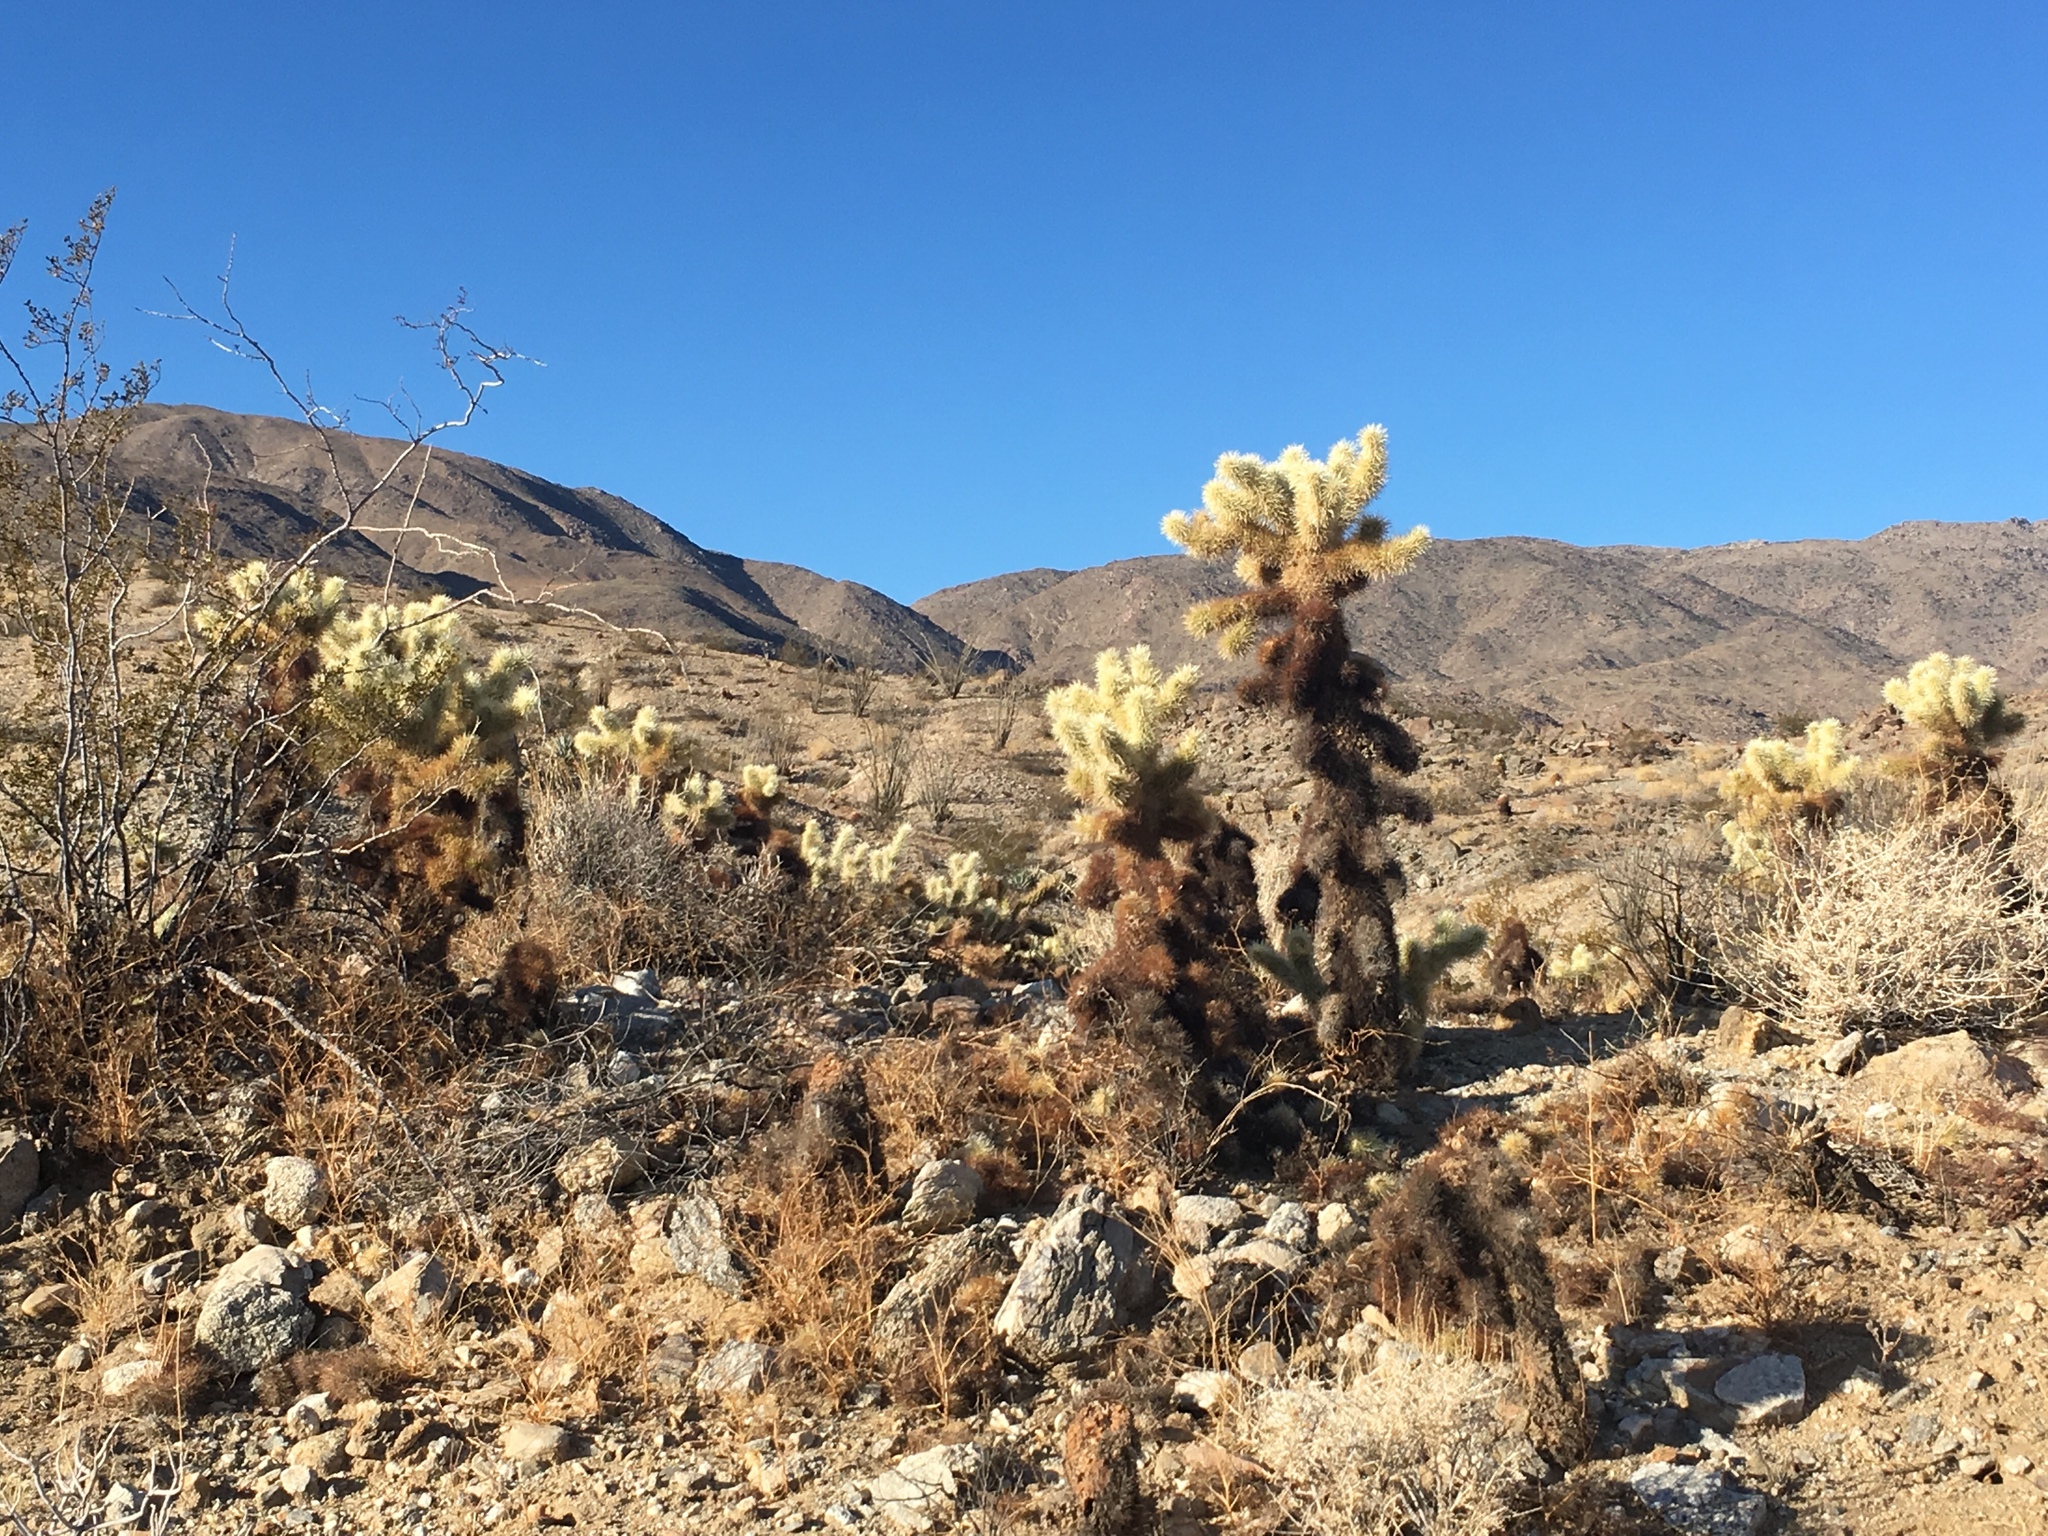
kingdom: Plantae
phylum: Tracheophyta
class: Magnoliopsida
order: Caryophyllales
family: Cactaceae
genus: Cylindropuntia
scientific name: Cylindropuntia fosbergii
